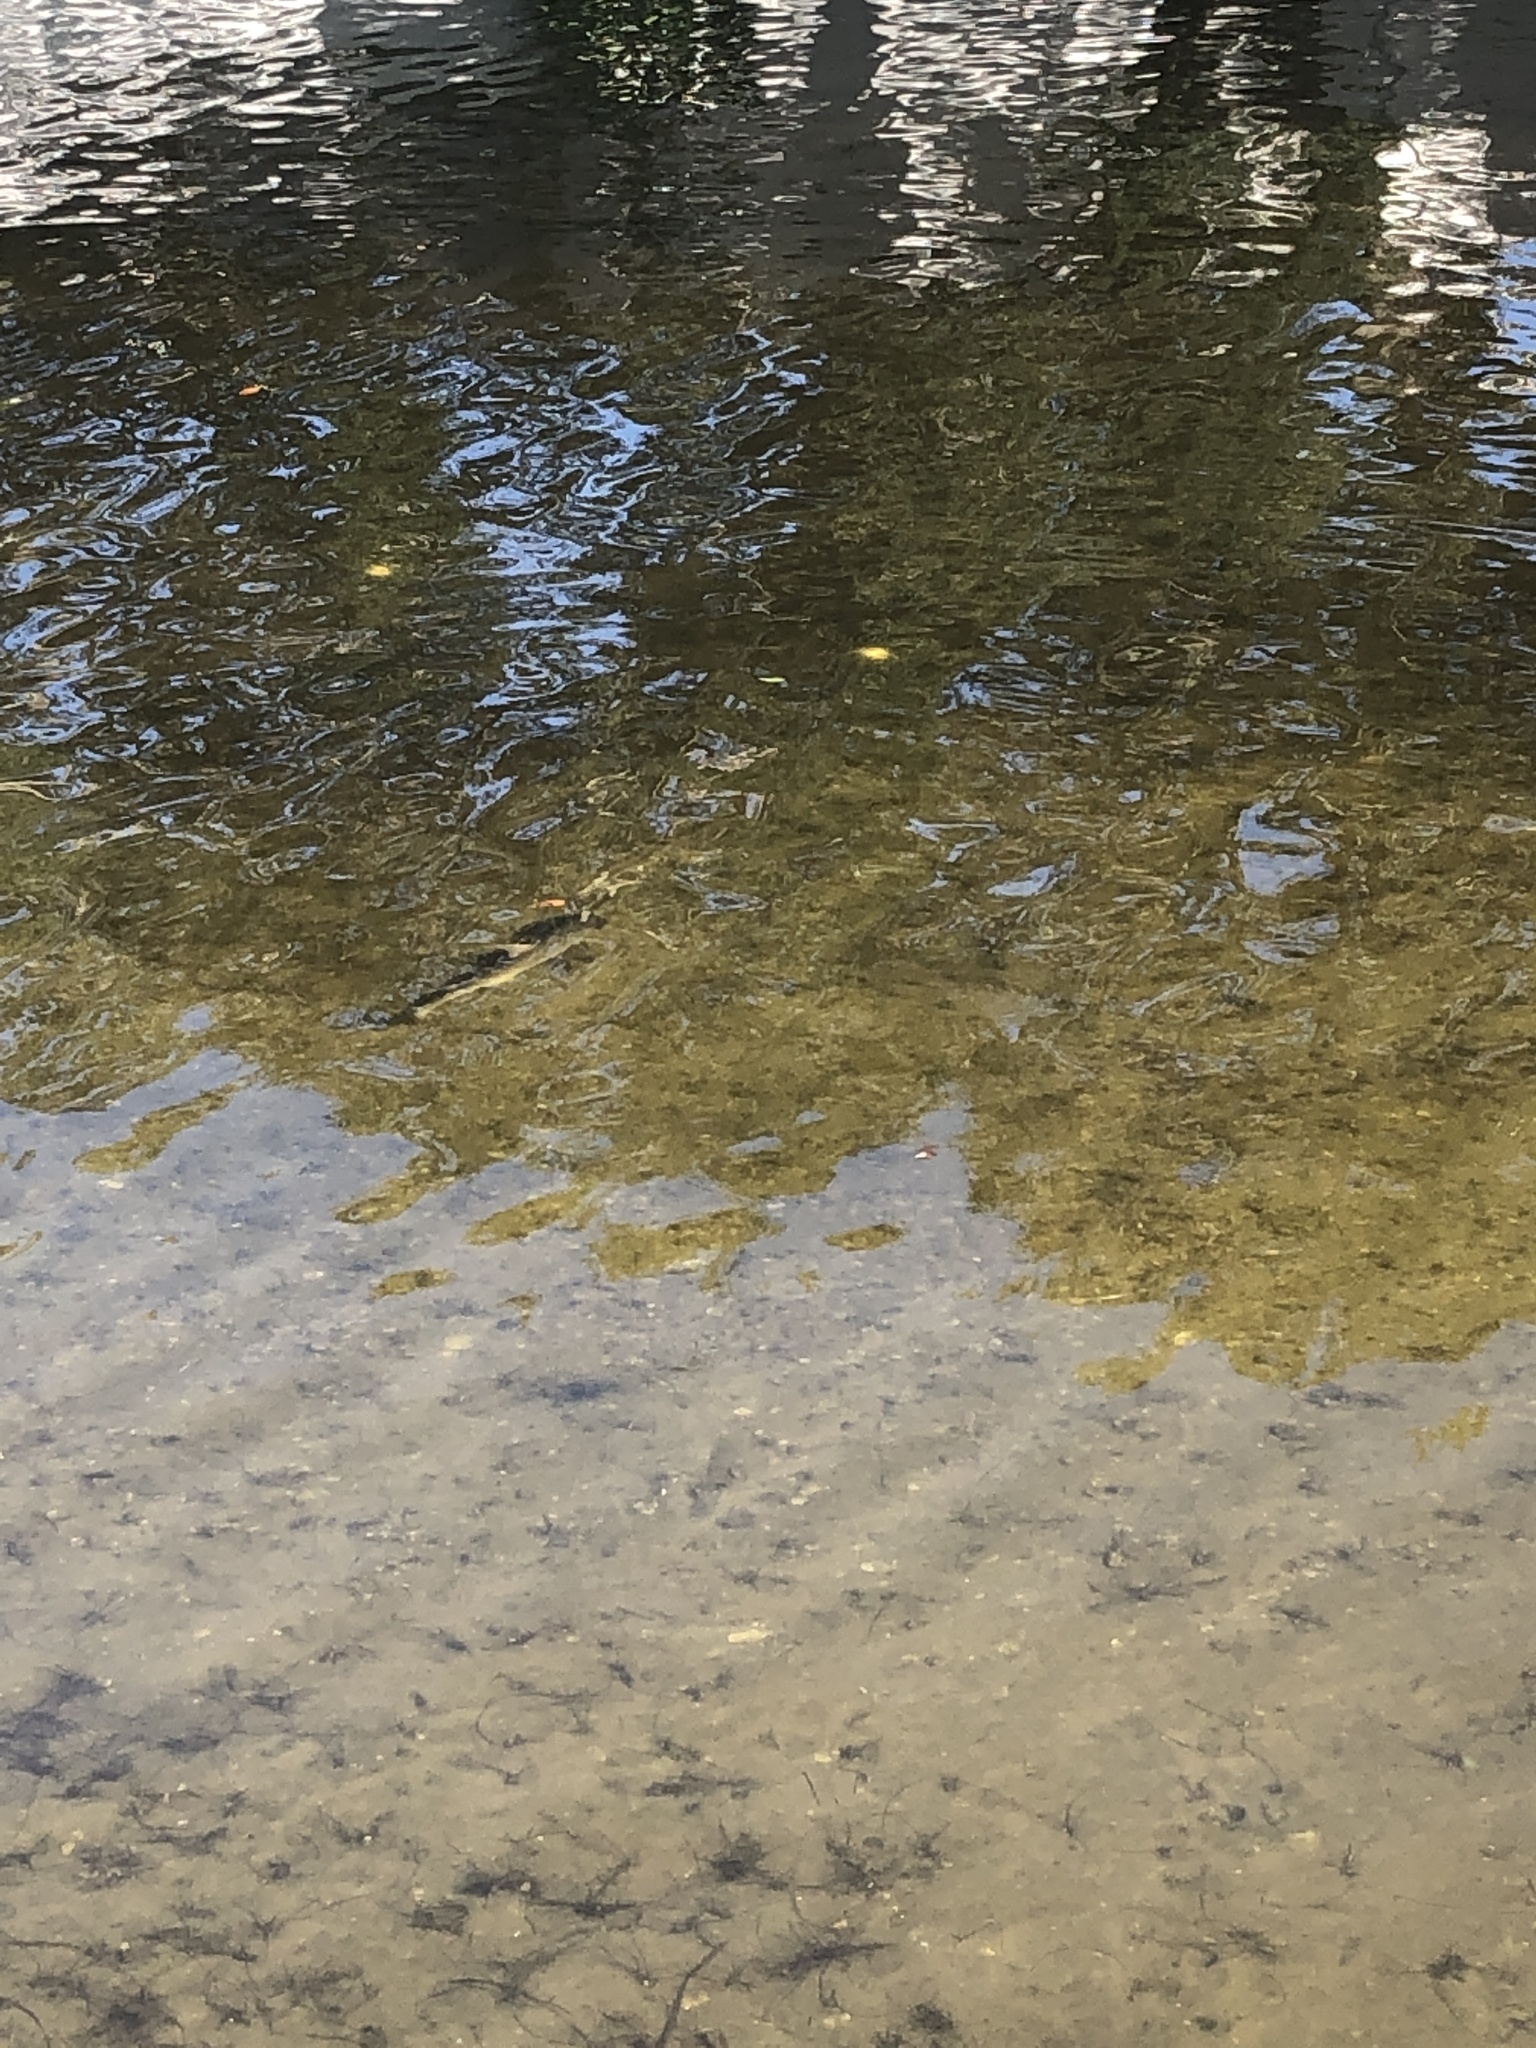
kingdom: Animalia
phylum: Chordata
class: Elasmobranchii
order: Carcharhiniformes
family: Sphyrnidae
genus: Sphyrna
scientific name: Sphyrna tiburo
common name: Bonnethead
